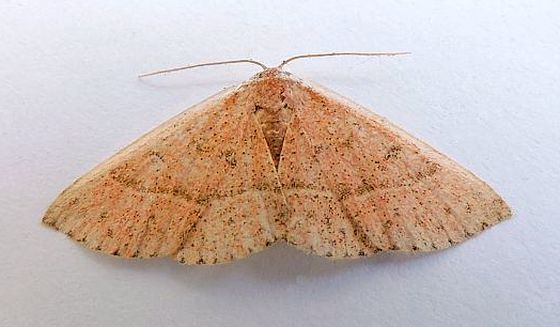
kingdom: Animalia
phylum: Arthropoda
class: Insecta
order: Lepidoptera
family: Noctuidae
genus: Oruza
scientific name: Oruza albocostata
